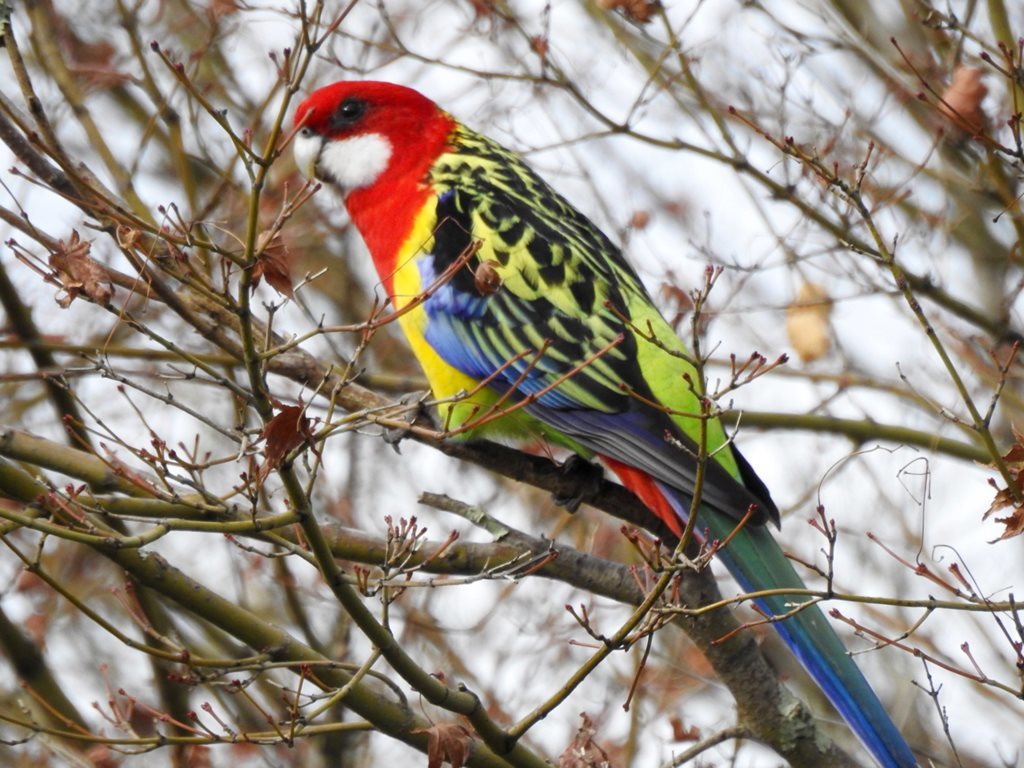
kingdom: Animalia
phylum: Chordata
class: Aves
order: Psittaciformes
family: Psittacidae
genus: Platycercus
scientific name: Platycercus eximius
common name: Eastern rosella
